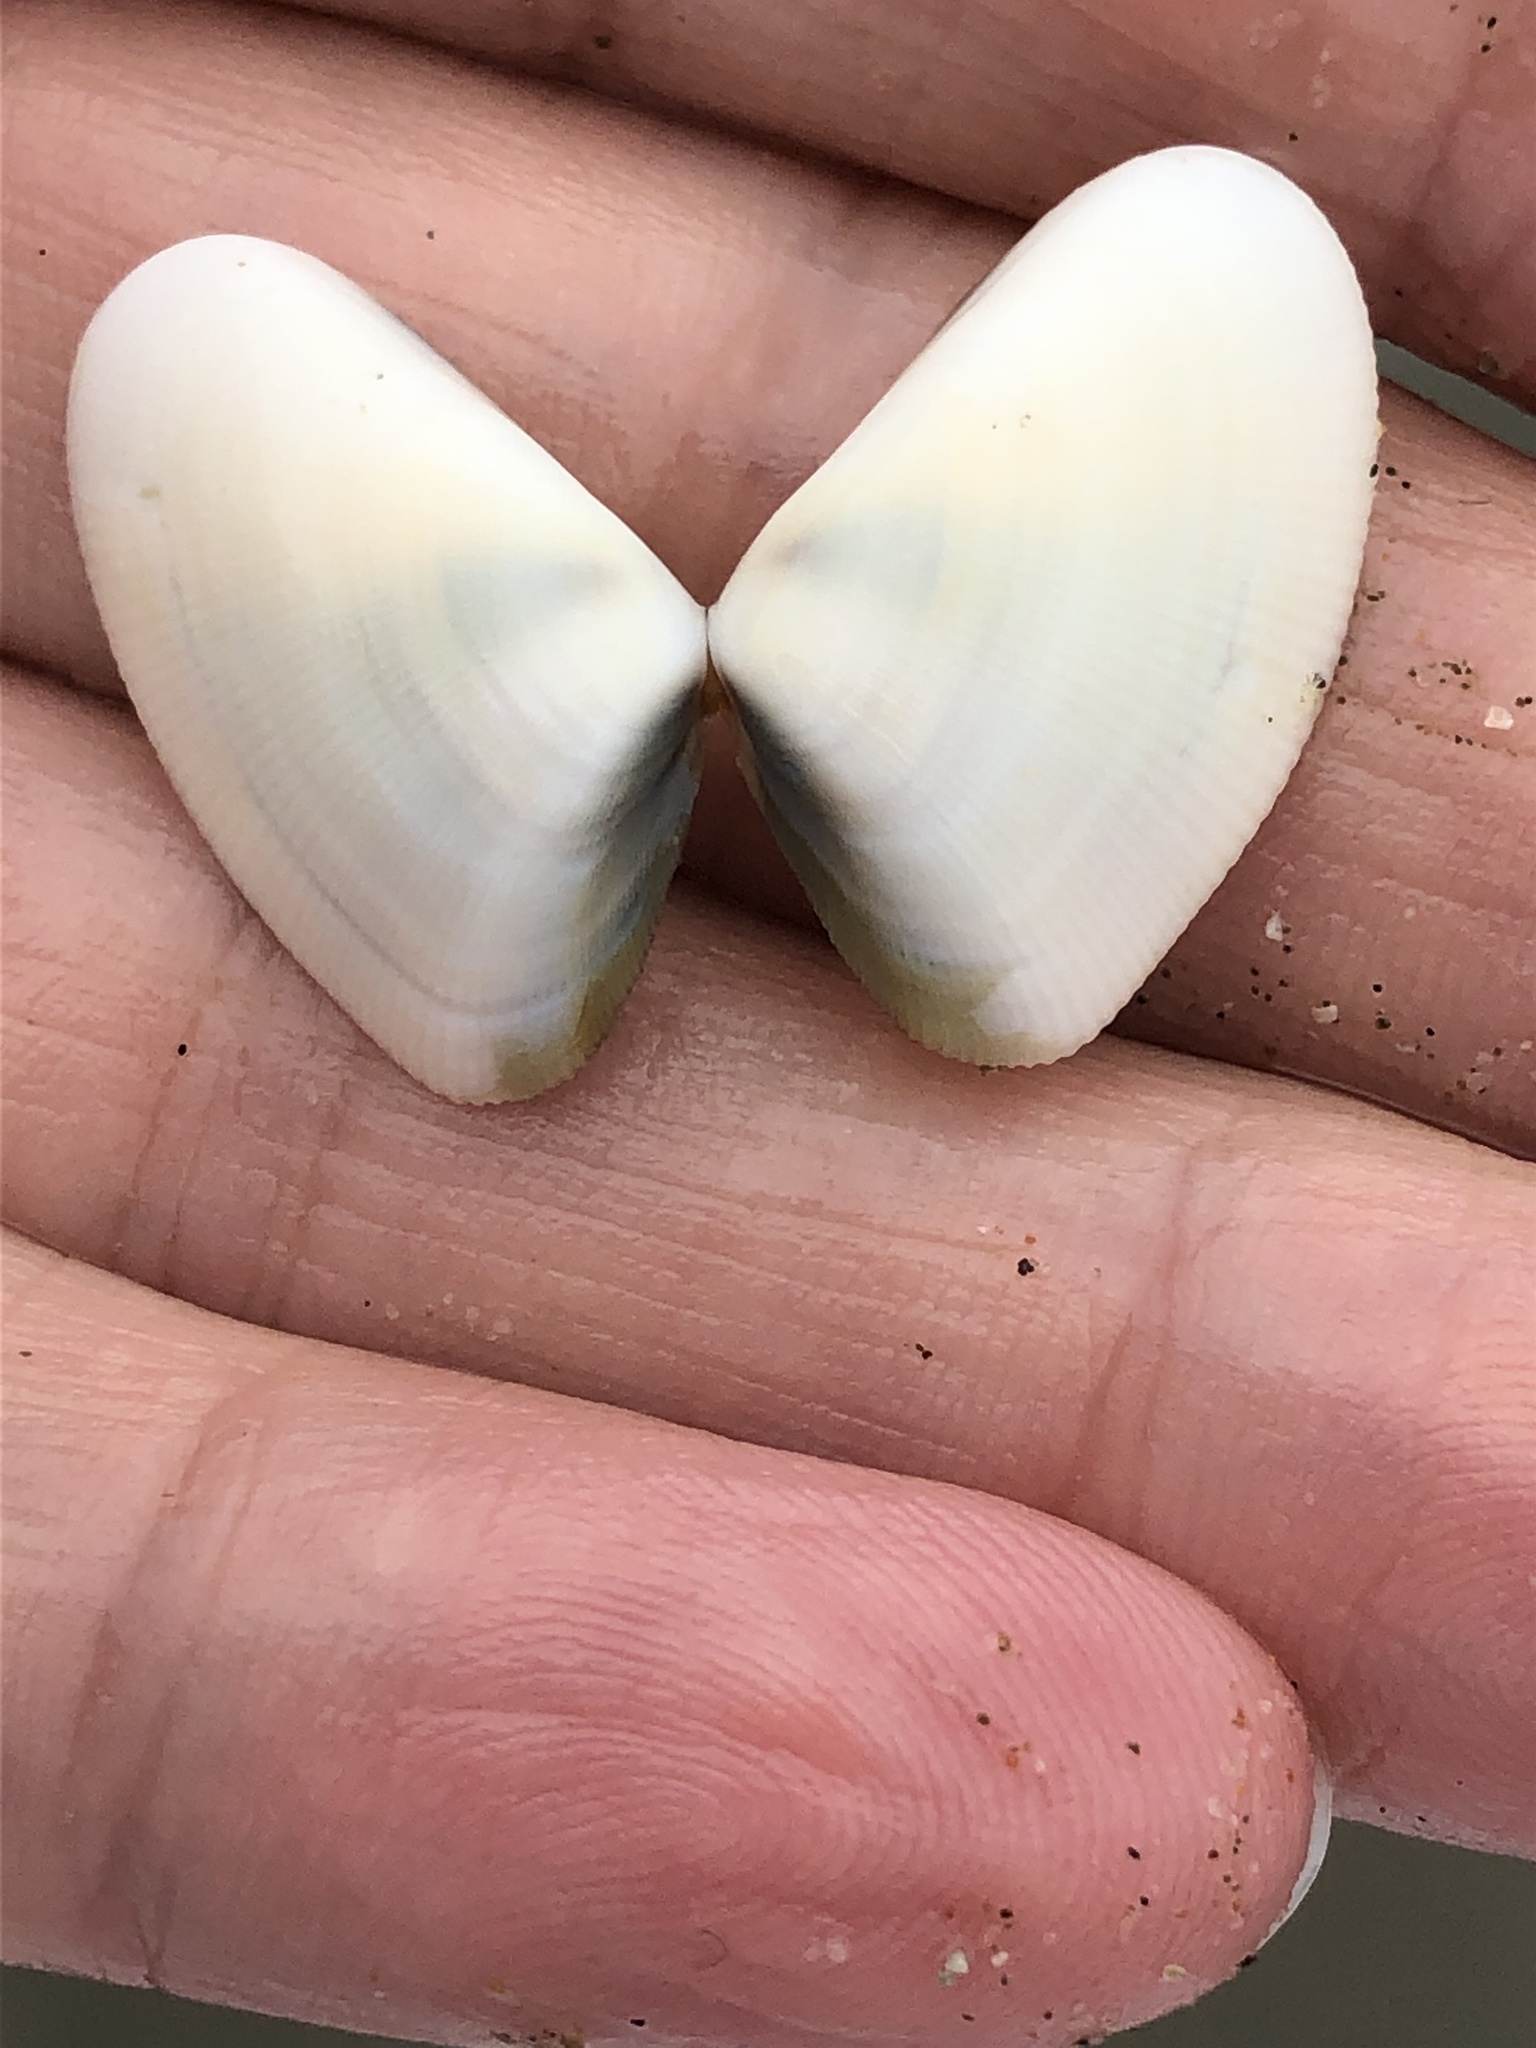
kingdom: Animalia
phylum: Mollusca
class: Bivalvia
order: Cardiida
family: Donacidae
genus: Donax
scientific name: Donax gouldii
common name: Gould beanclam
